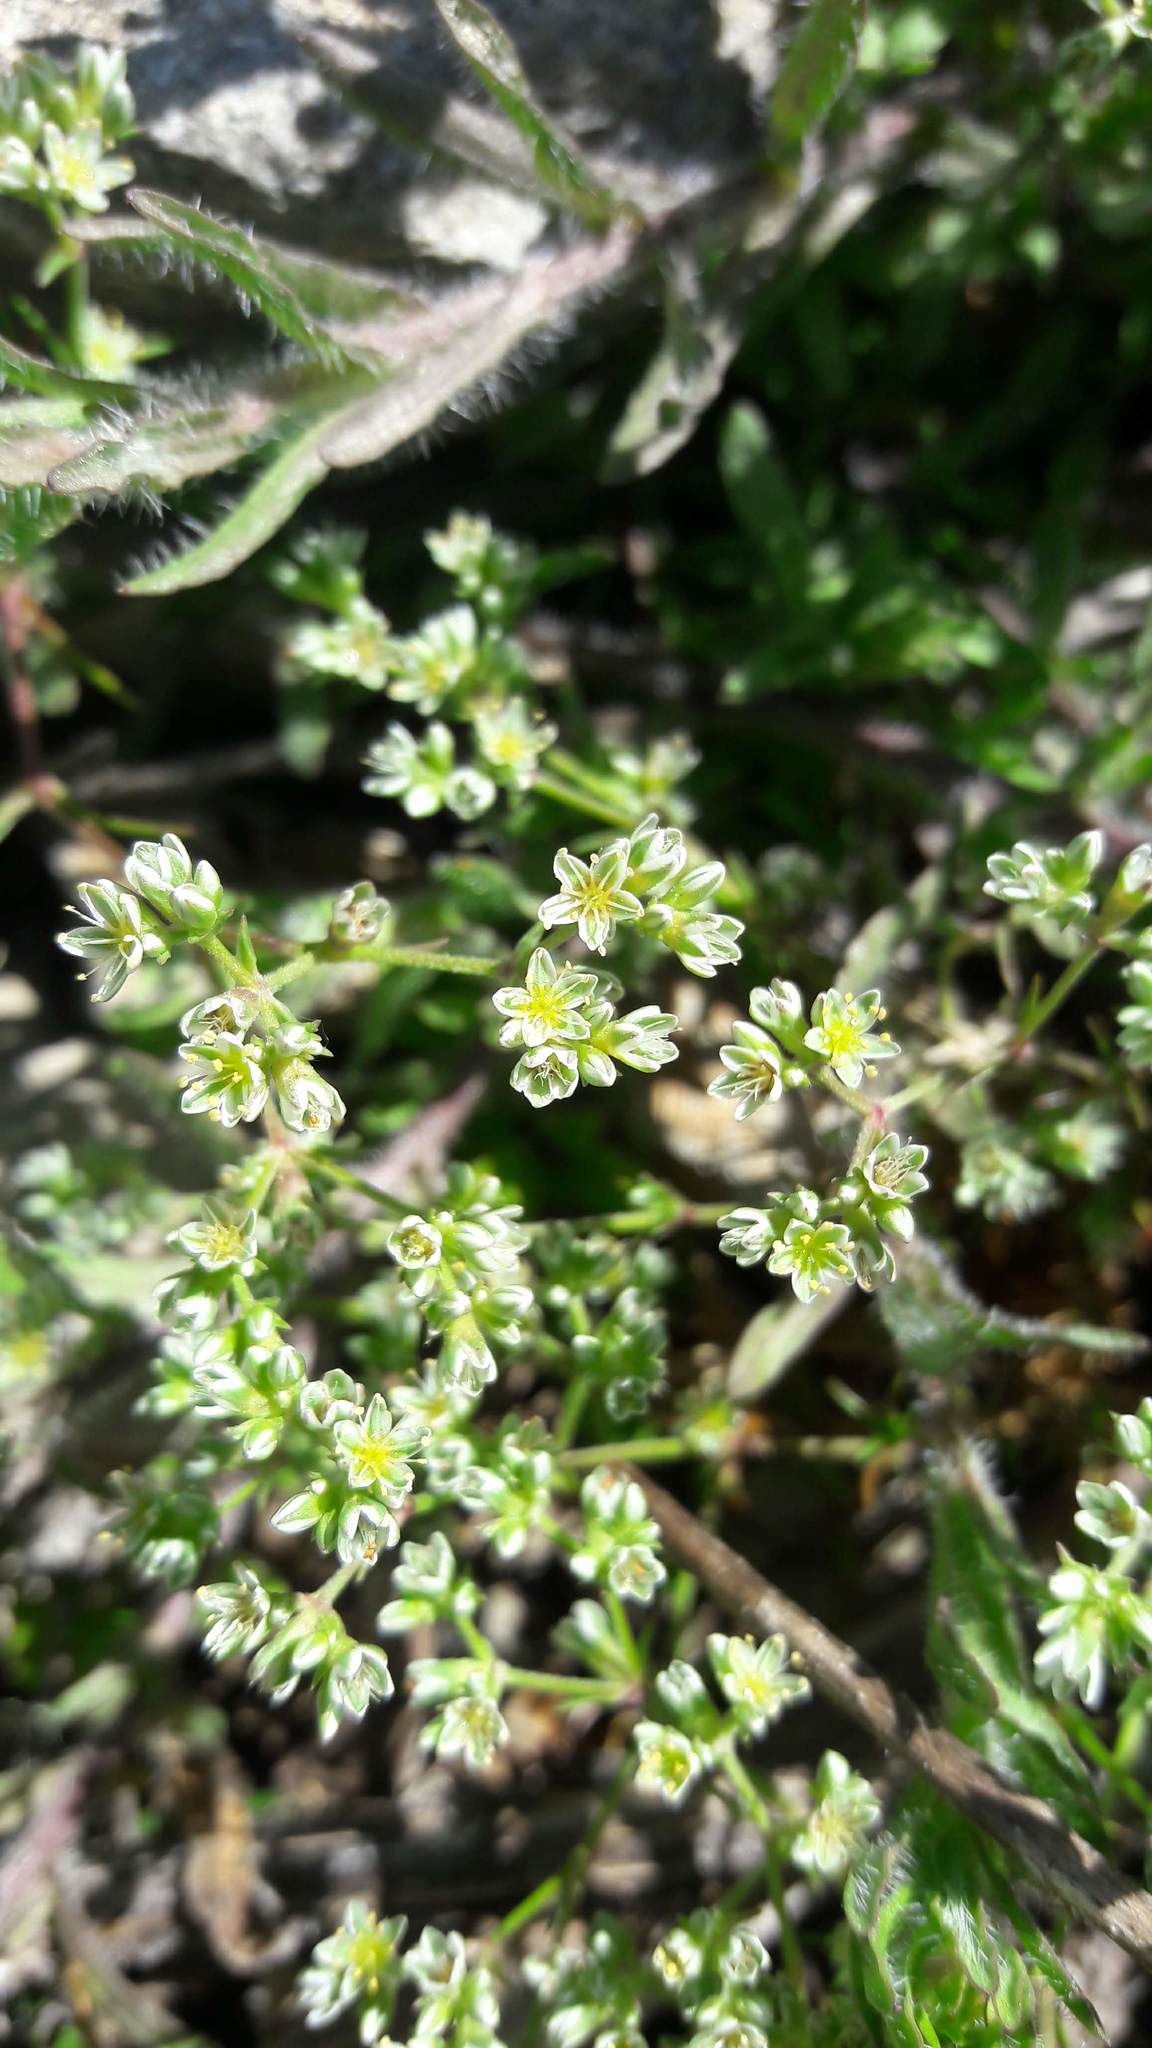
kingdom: Plantae
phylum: Tracheophyta
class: Magnoliopsida
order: Caryophyllales
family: Caryophyllaceae
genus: Scleranthus
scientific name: Scleranthus perennis
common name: Perennial knawel
